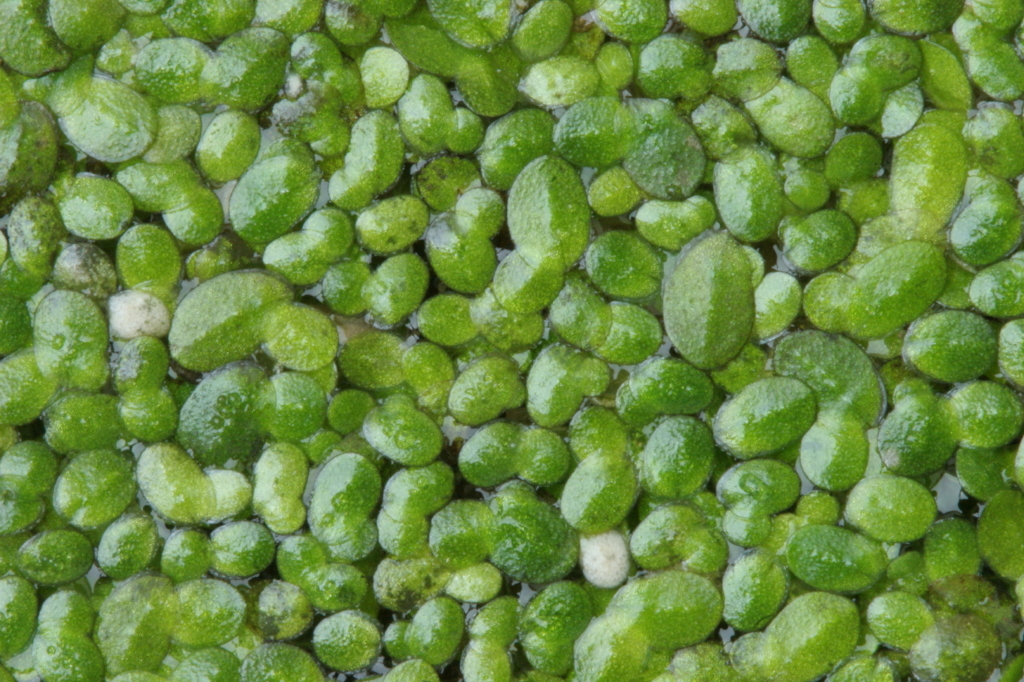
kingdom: Plantae
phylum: Tracheophyta
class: Liliopsida
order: Alismatales
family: Araceae
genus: Lemna
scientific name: Lemna minuta
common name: Least duckweed
